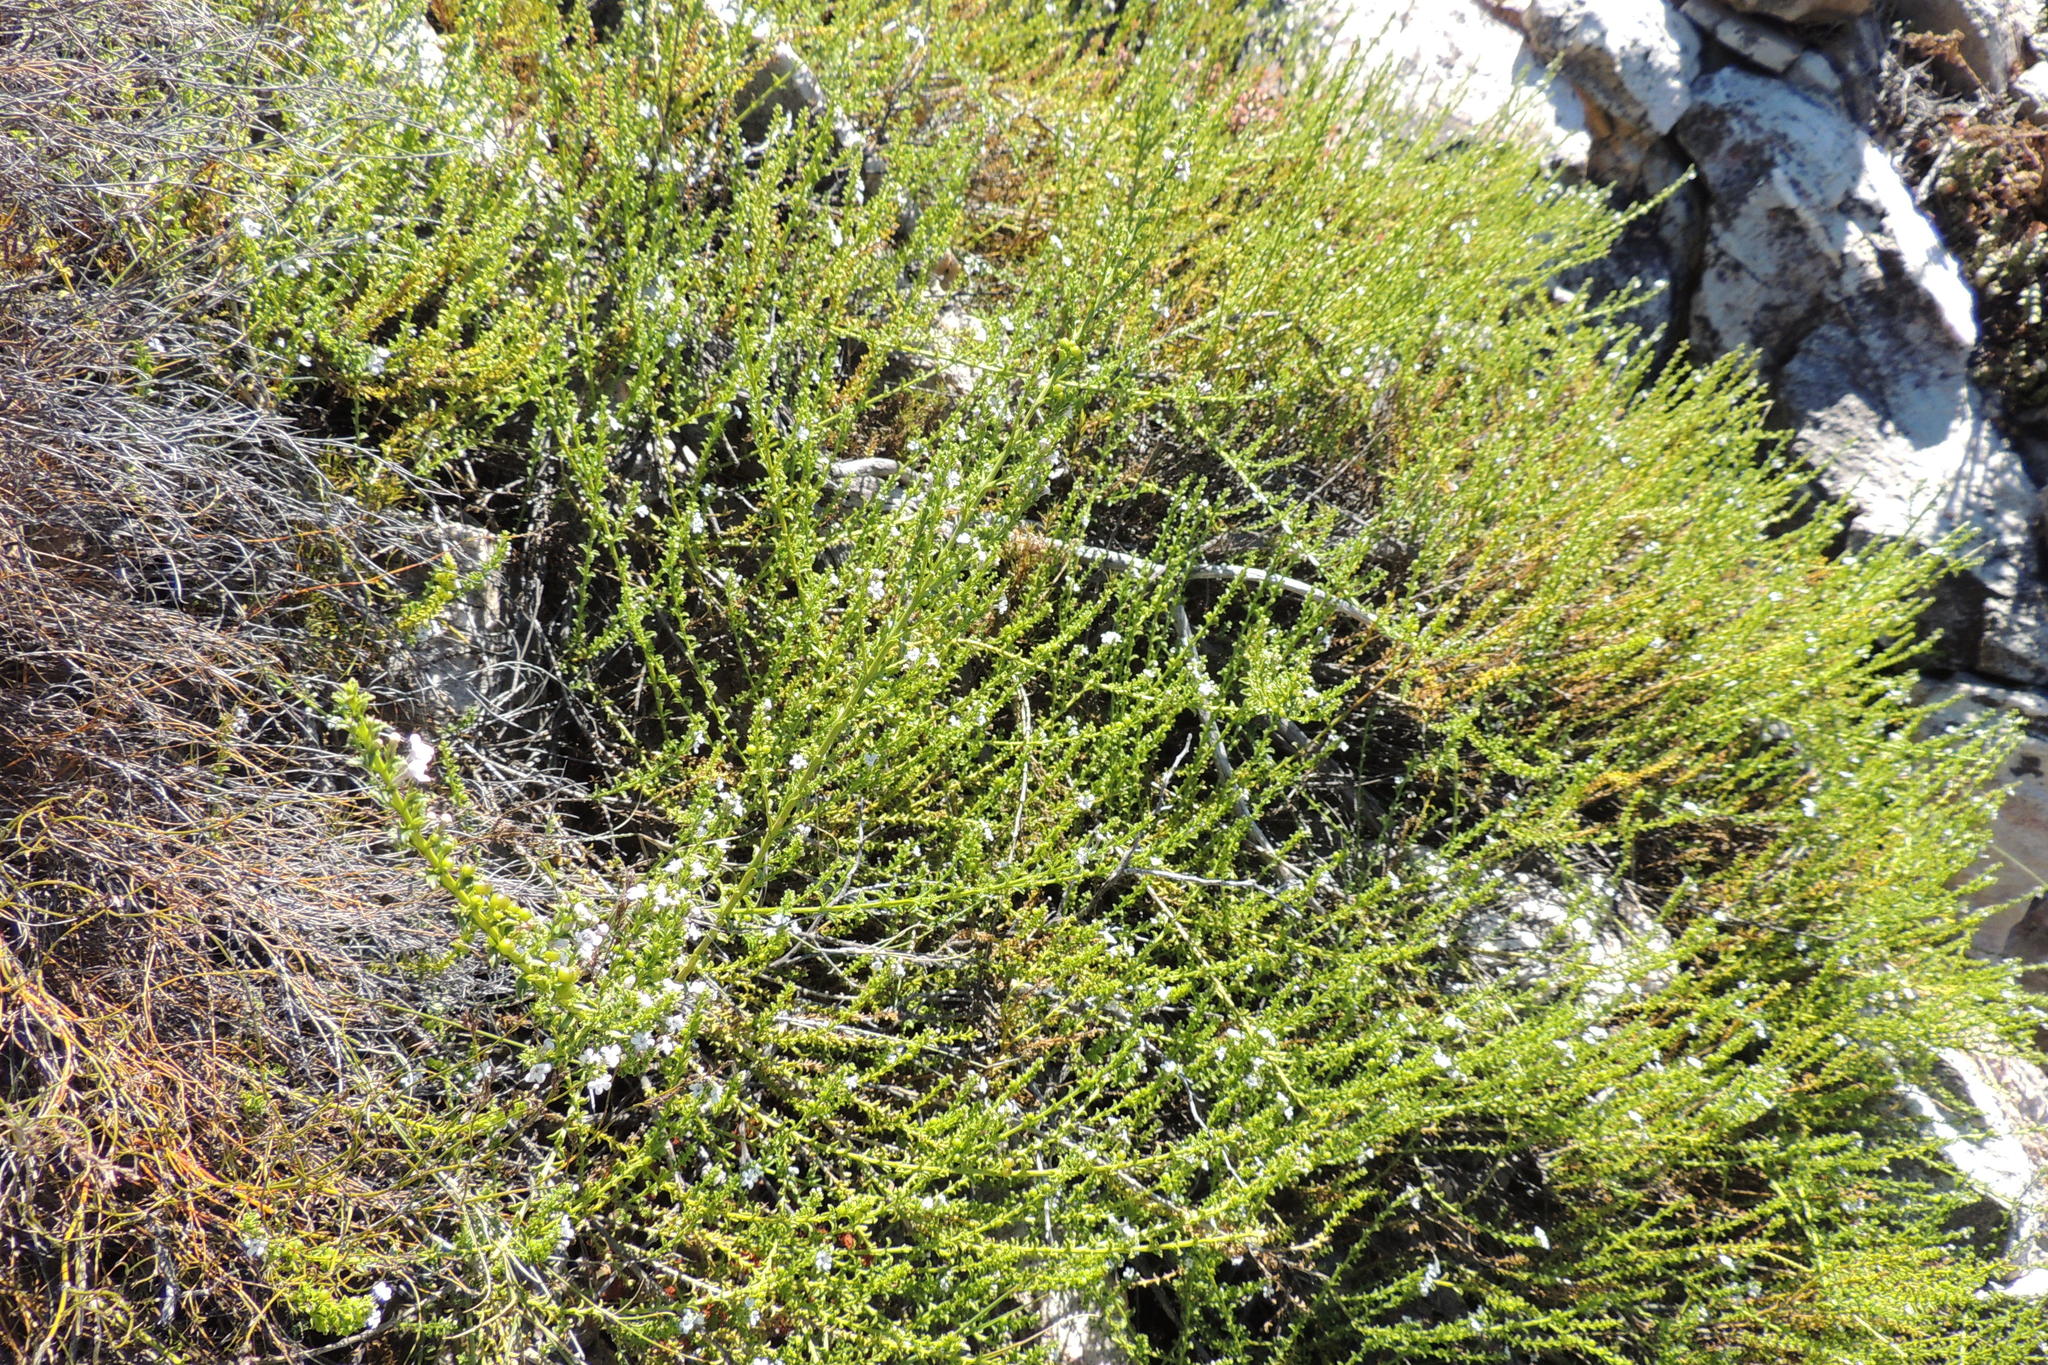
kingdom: Plantae
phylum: Tracheophyta
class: Magnoliopsida
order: Lamiales
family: Scrophulariaceae
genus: Oftia
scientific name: Oftia glabra
